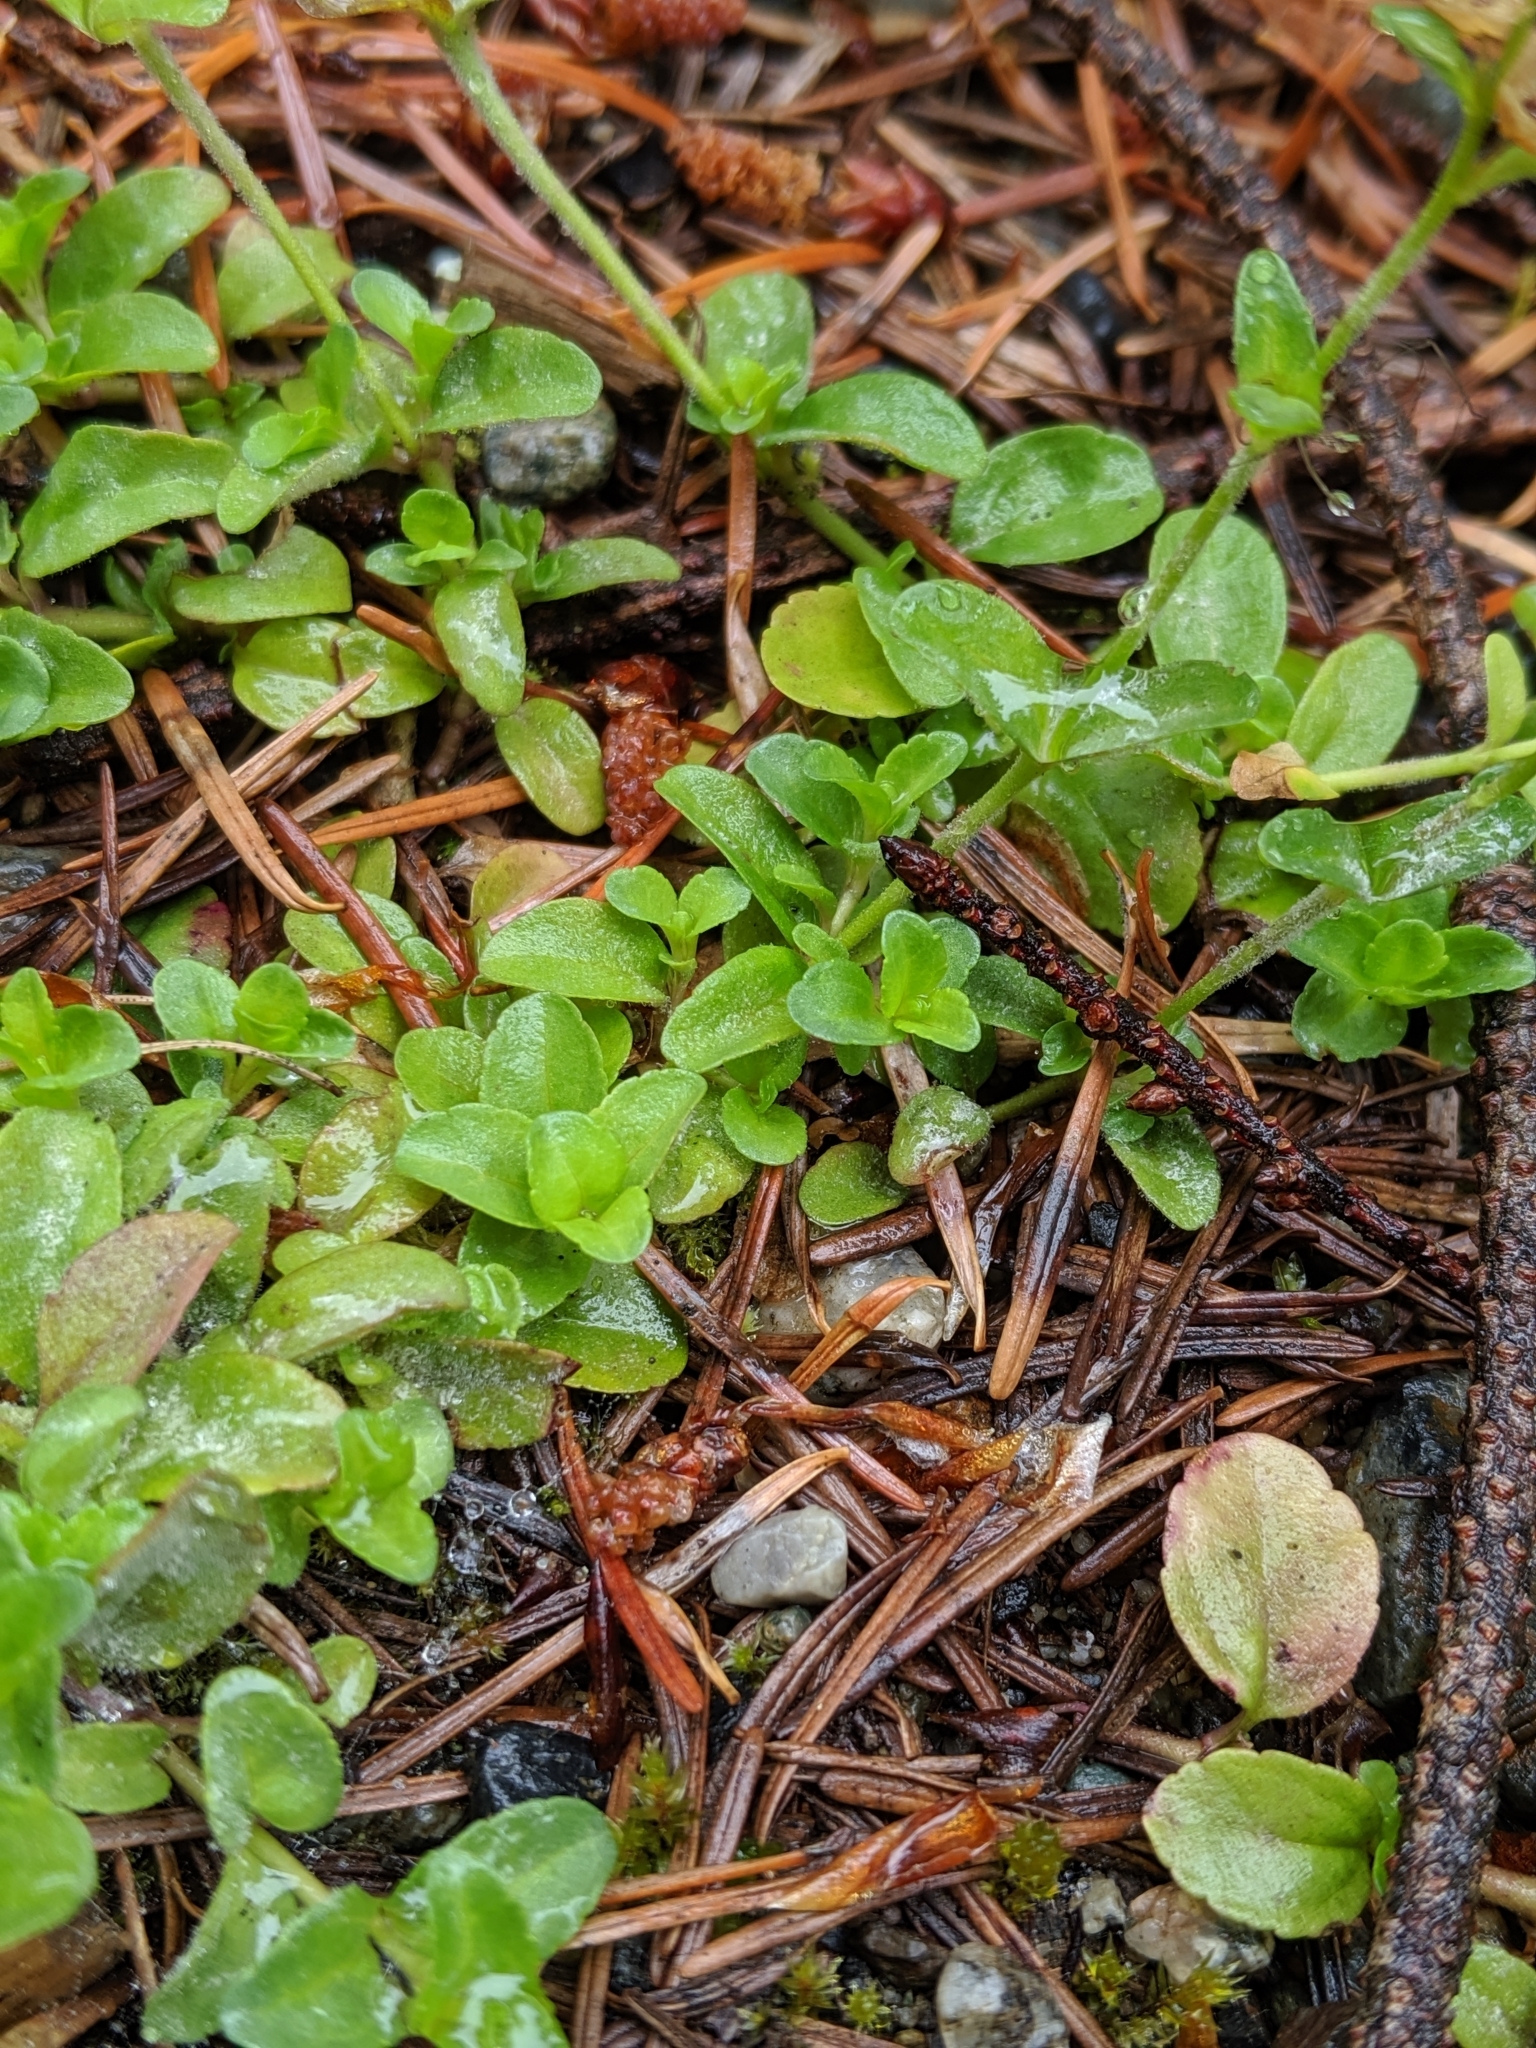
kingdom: Plantae
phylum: Tracheophyta
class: Magnoliopsida
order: Lamiales
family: Plantaginaceae
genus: Veronica
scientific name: Veronica serpyllifolia
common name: Thyme-leaved speedwell
